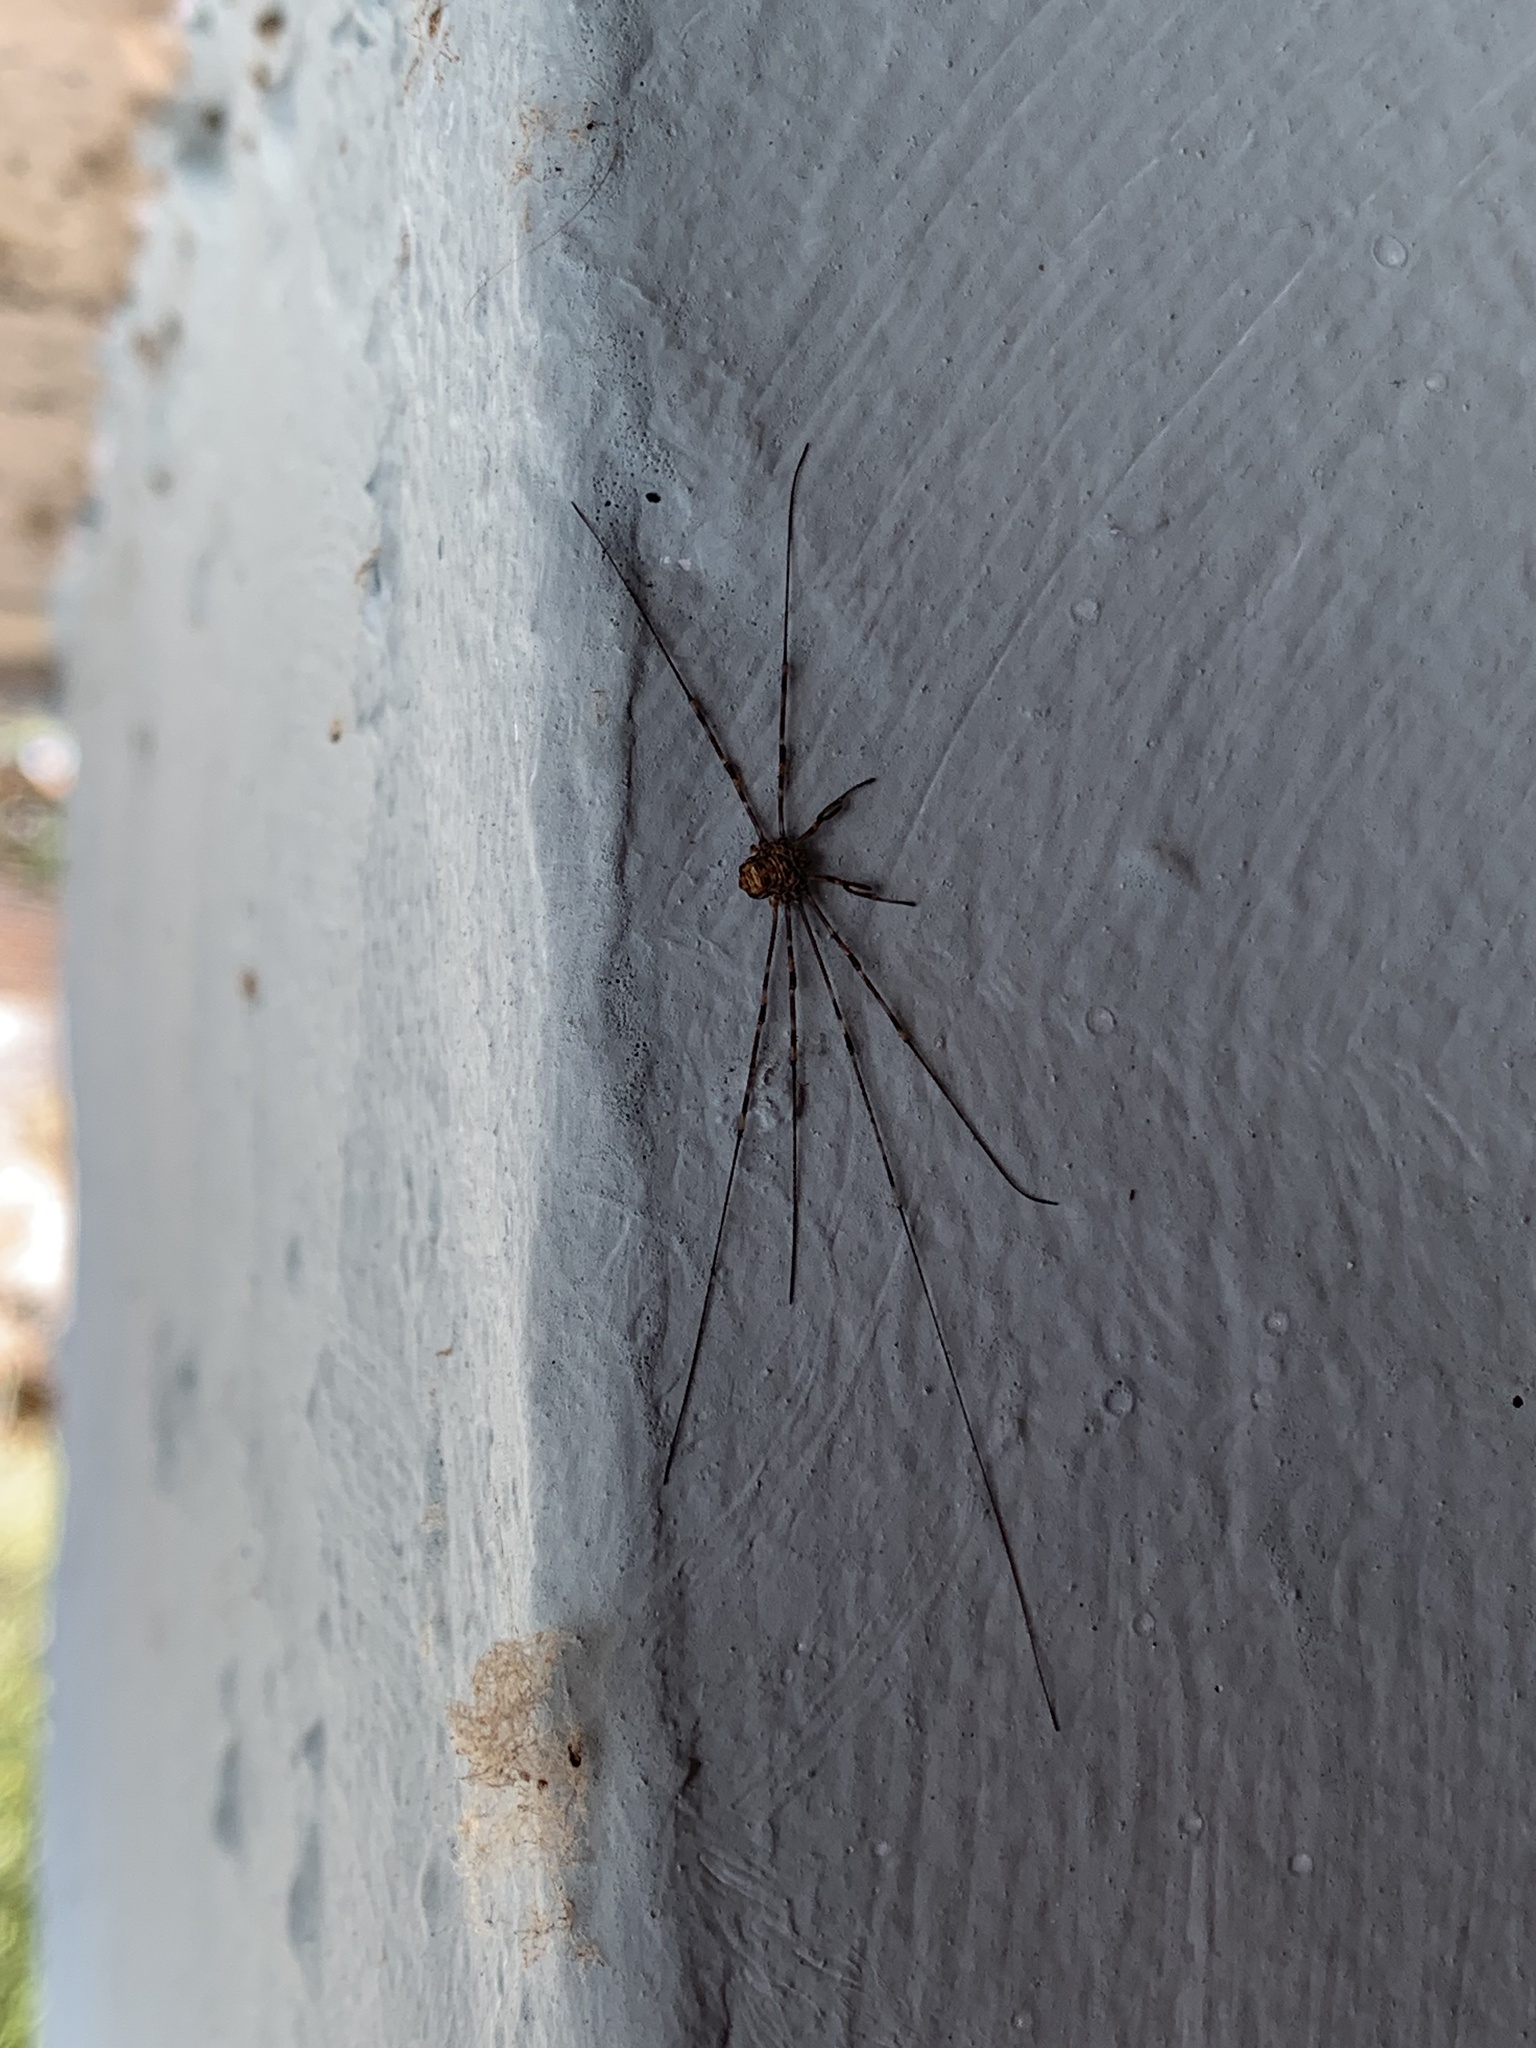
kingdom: Animalia
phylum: Arthropoda
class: Arachnida
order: Opiliones
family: Phalangiidae
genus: Dicranopalpus
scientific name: Dicranopalpus
